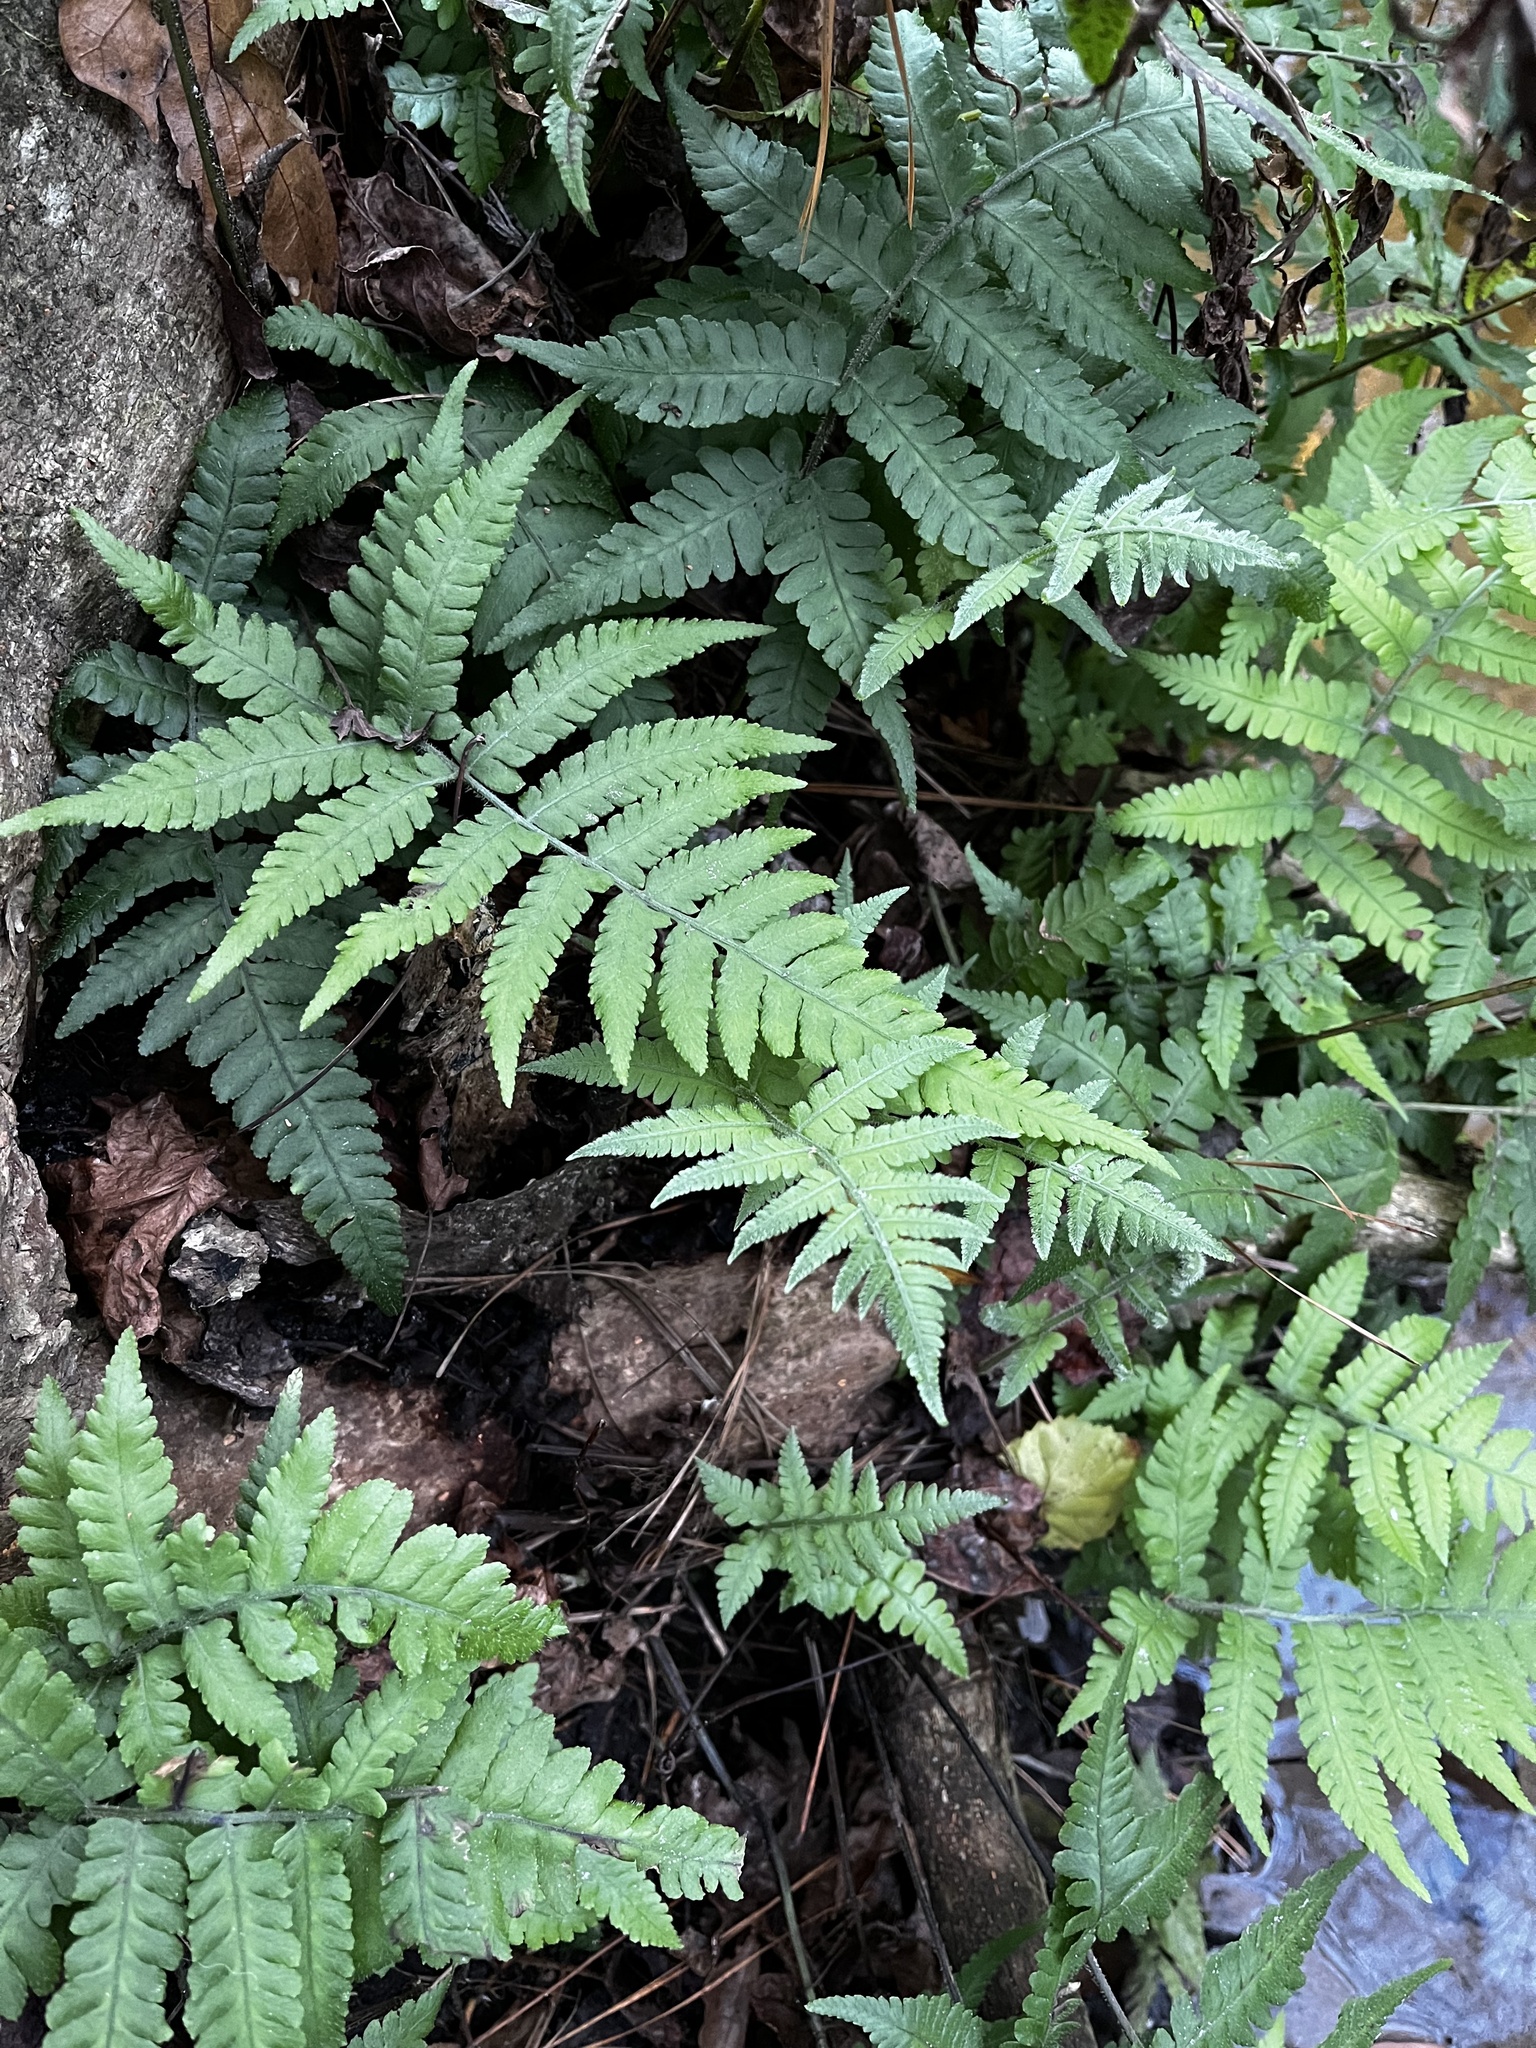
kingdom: Plantae
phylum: Tracheophyta
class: Polypodiopsida
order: Polypodiales
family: Athyriaceae
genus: Deparia
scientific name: Deparia petersenii
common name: Japanese false spleenwort
